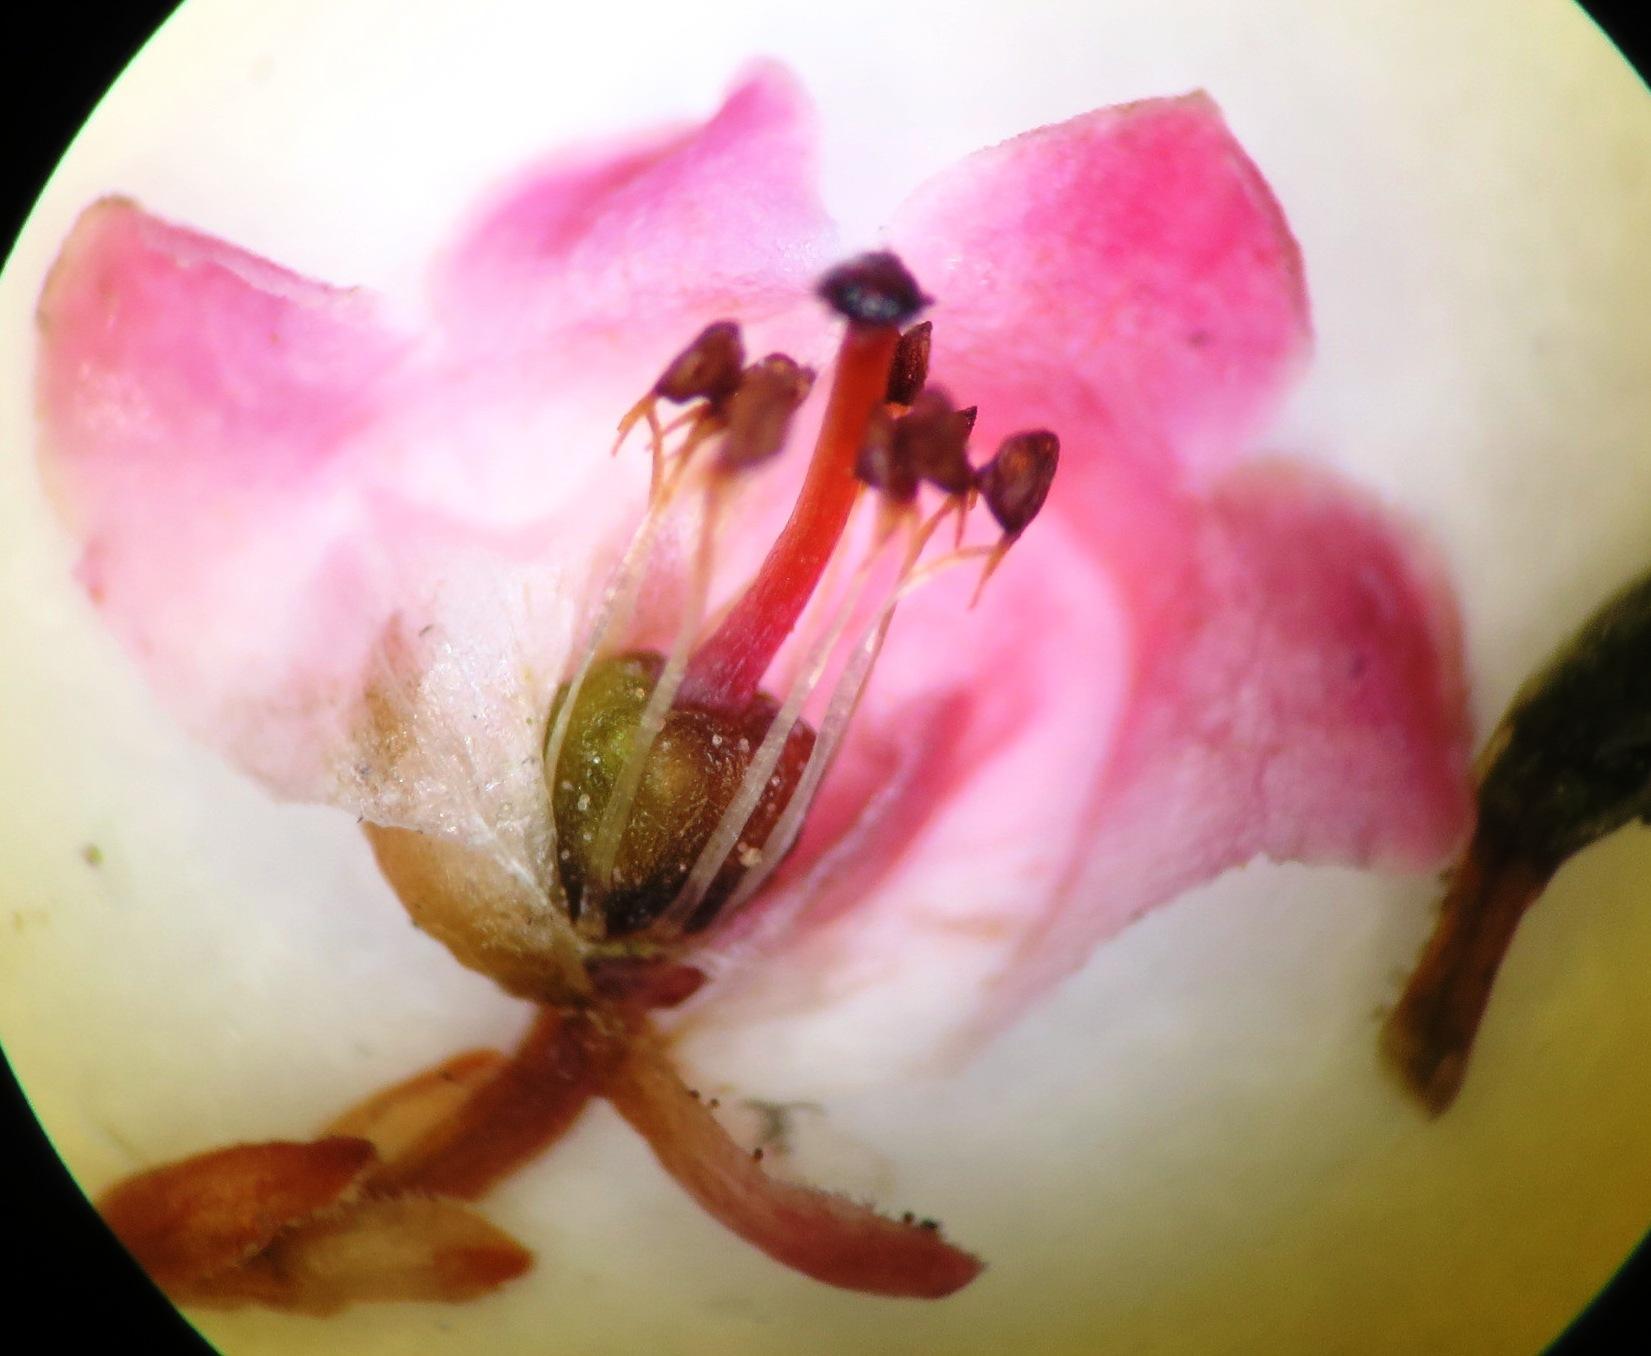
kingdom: Plantae
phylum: Tracheophyta
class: Magnoliopsida
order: Ericales
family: Ericaceae
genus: Erica
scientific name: Erica dodii
